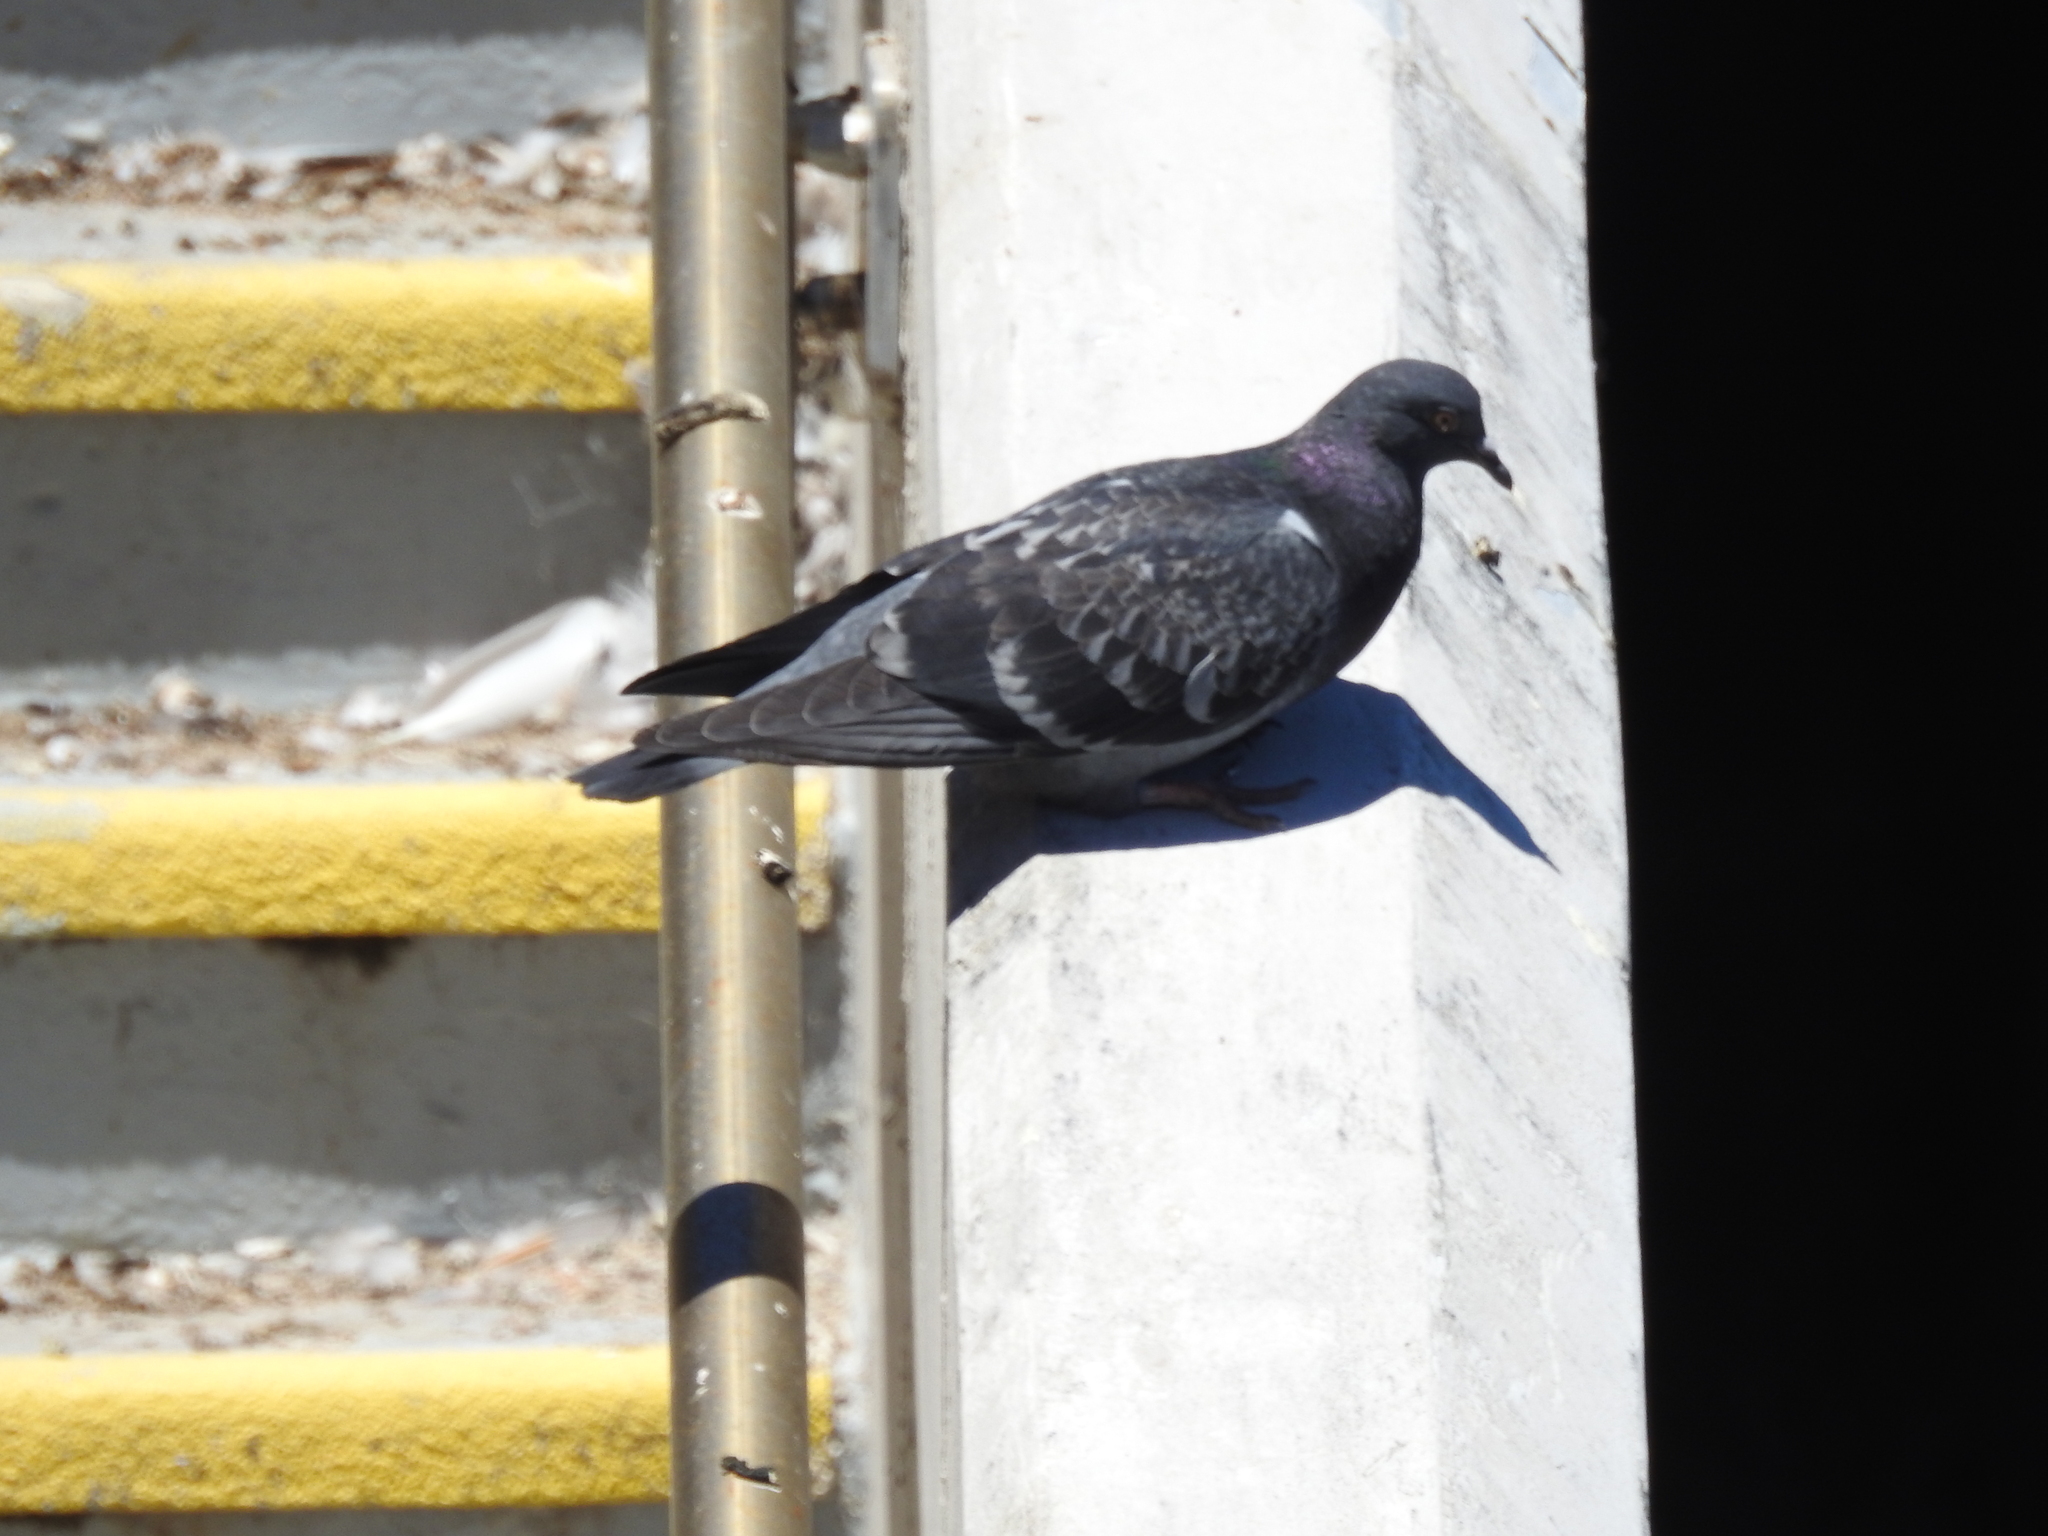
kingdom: Animalia
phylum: Chordata
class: Aves
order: Columbiformes
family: Columbidae
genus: Columba
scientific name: Columba livia
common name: Rock pigeon
